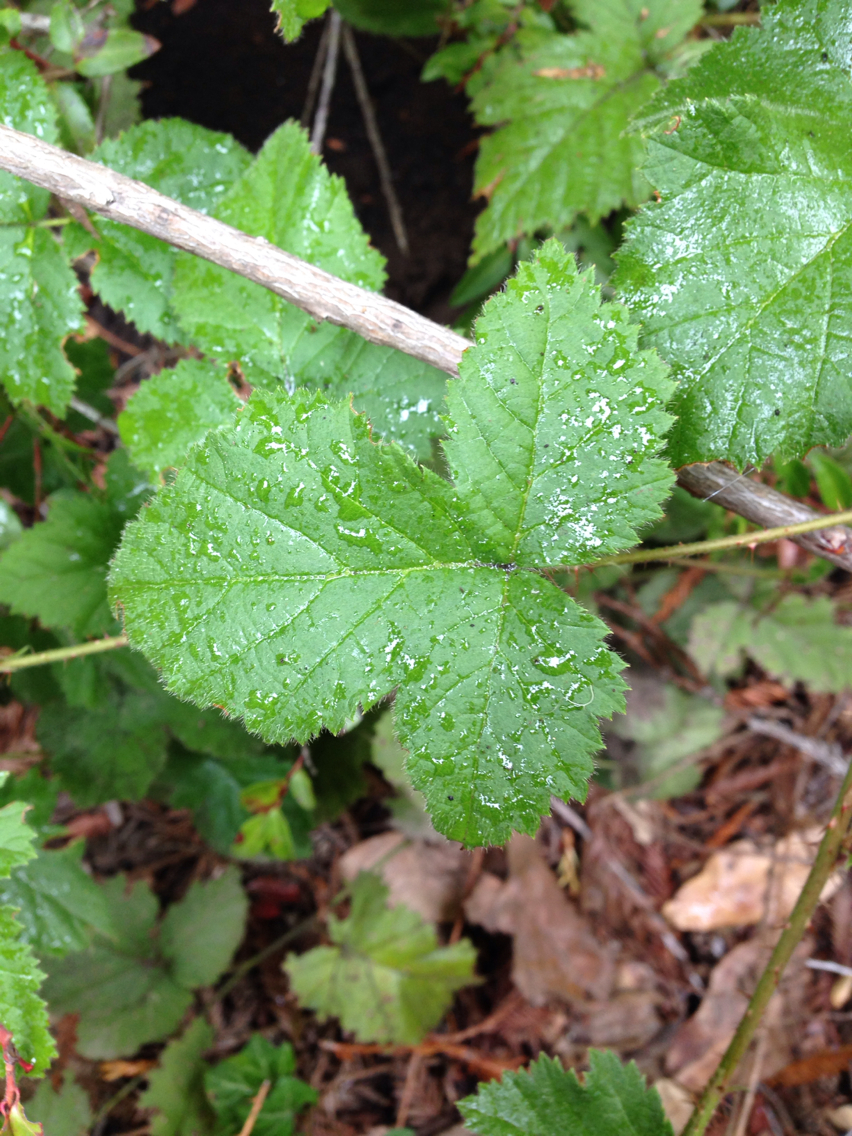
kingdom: Plantae
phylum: Tracheophyta
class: Magnoliopsida
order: Rosales
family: Rosaceae
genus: Rubus
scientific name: Rubus ursinus
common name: Pacific blackberry
